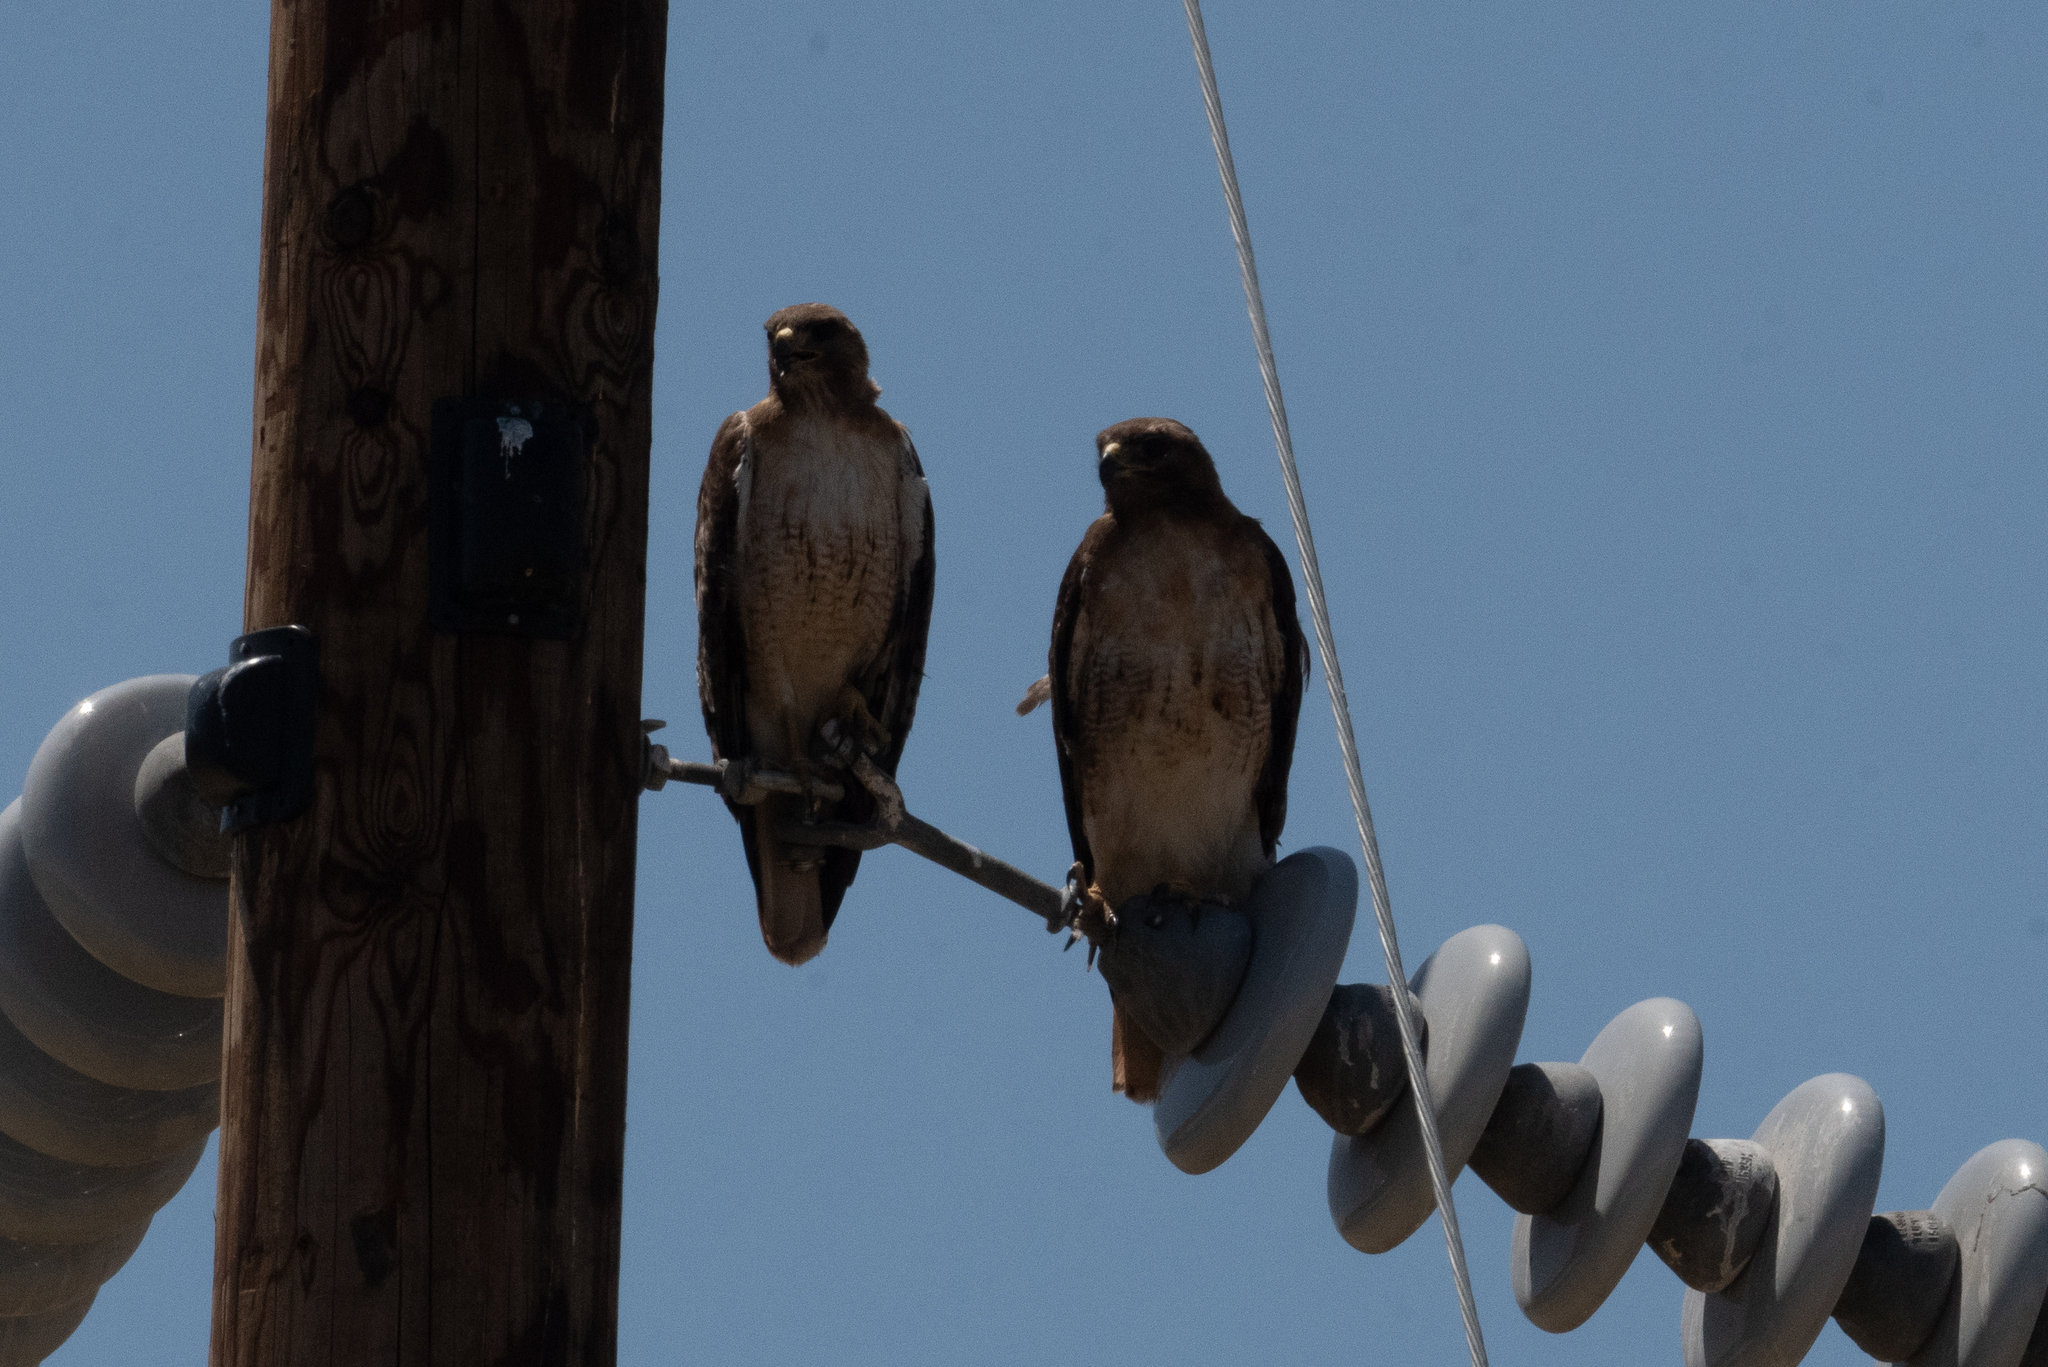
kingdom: Animalia
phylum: Chordata
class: Aves
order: Accipitriformes
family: Accipitridae
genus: Buteo
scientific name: Buteo jamaicensis
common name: Red-tailed hawk
